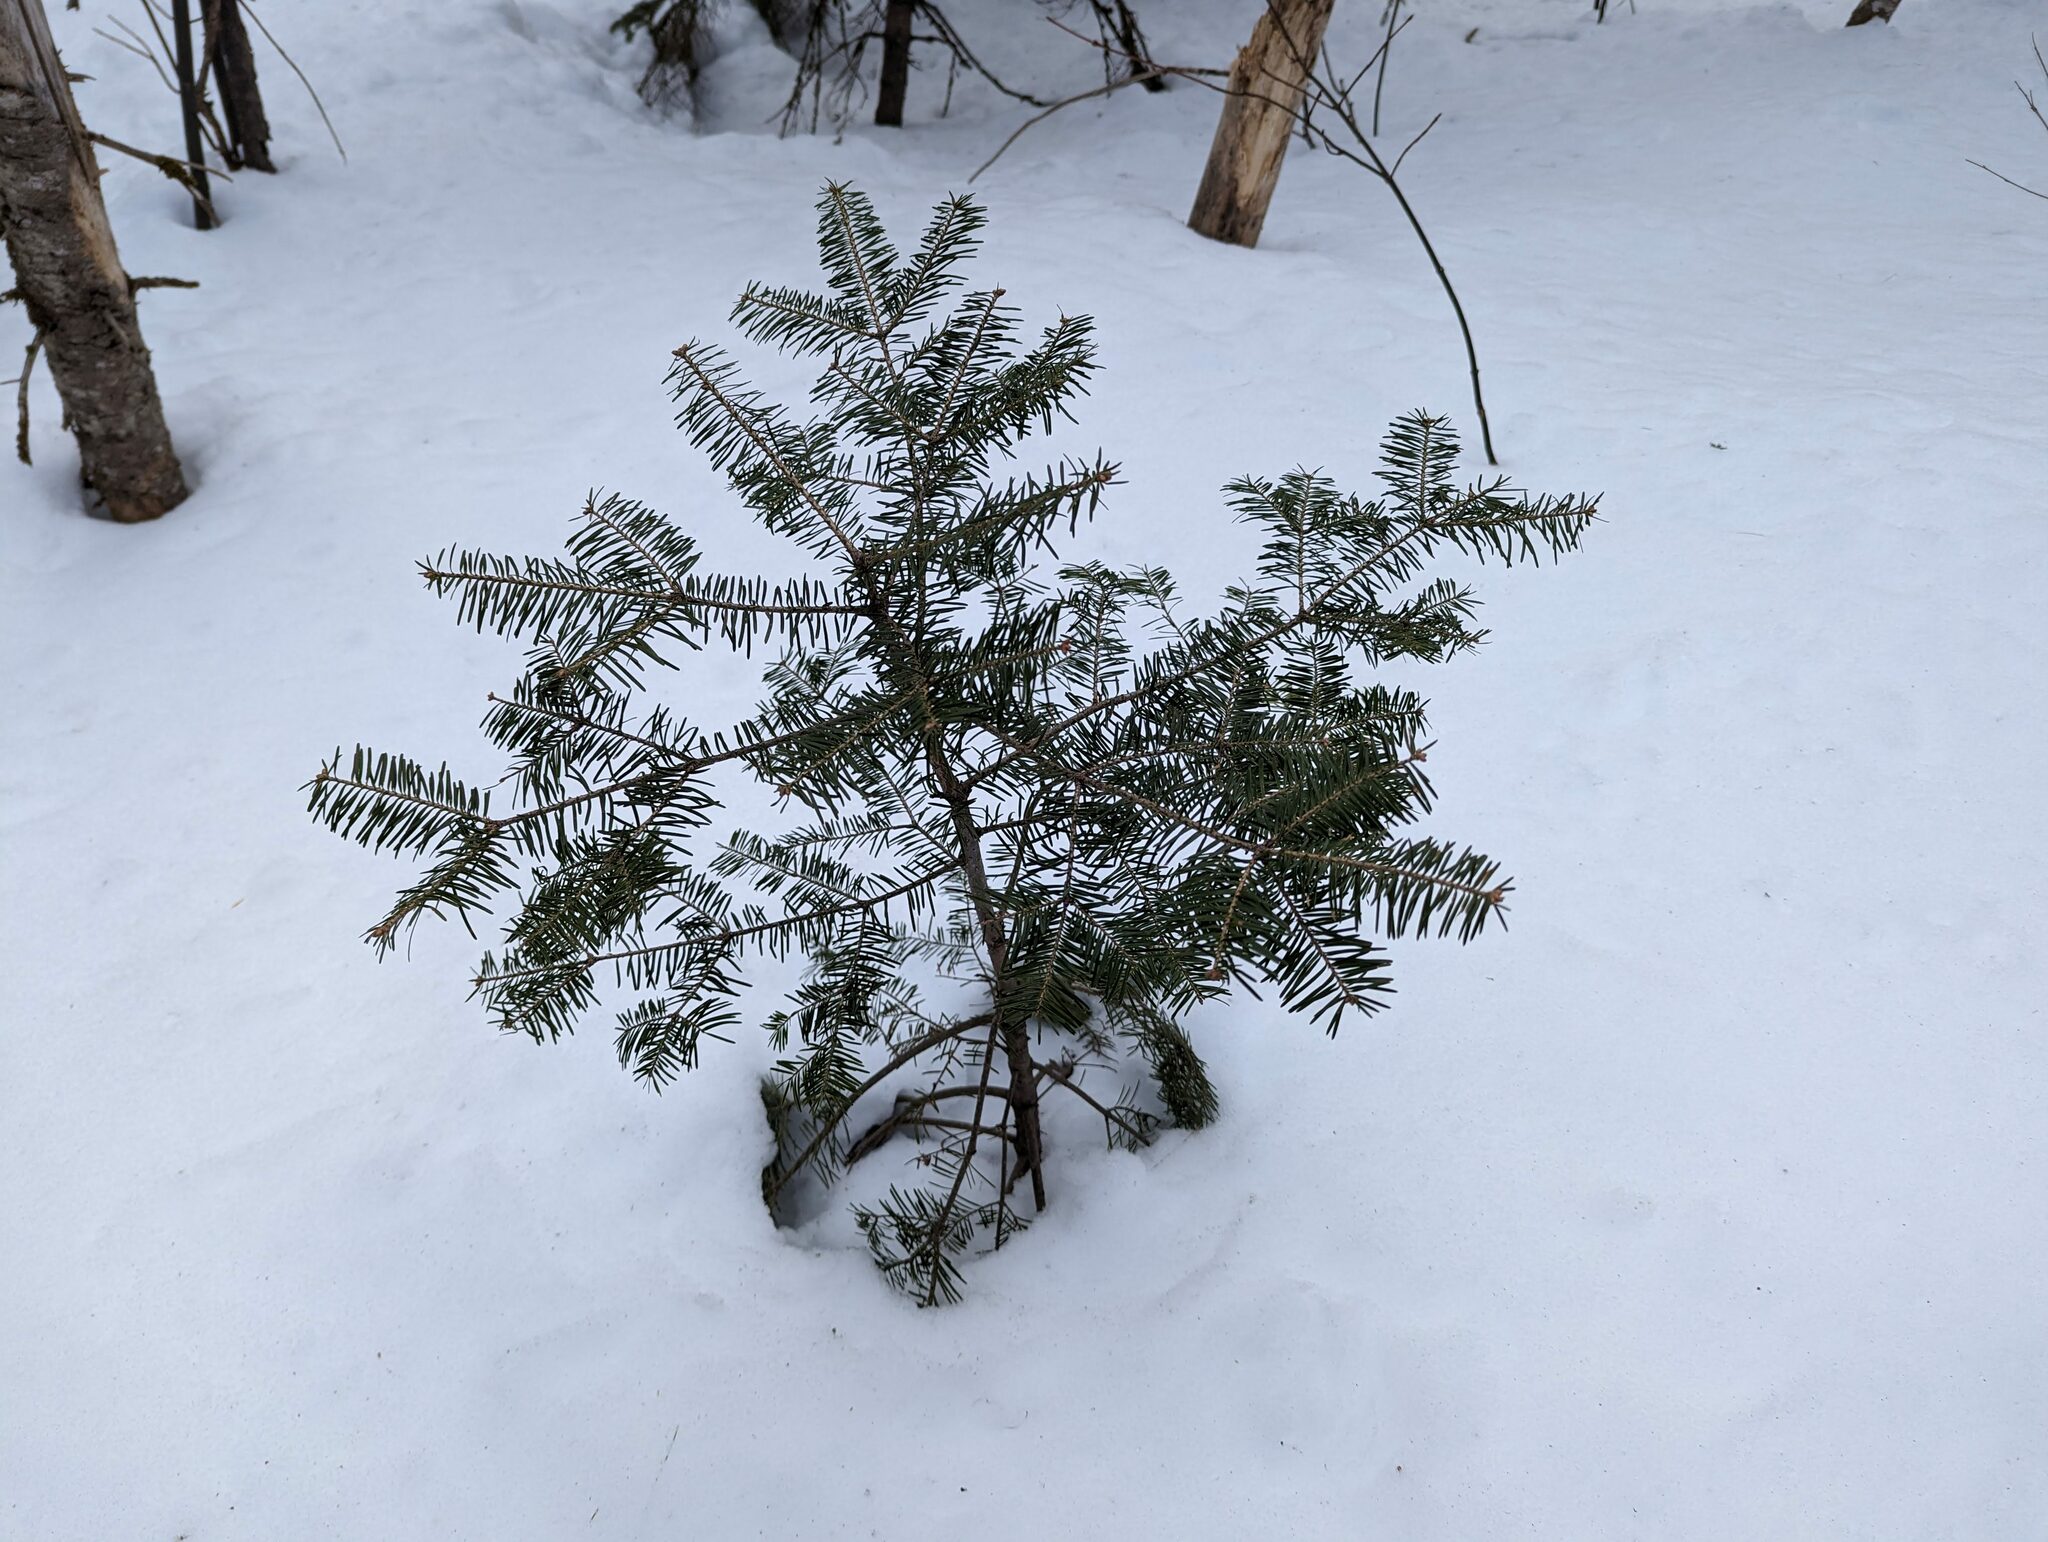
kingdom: Plantae
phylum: Tracheophyta
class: Pinopsida
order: Pinales
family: Pinaceae
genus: Abies
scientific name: Abies balsamea
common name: Balsam fir
